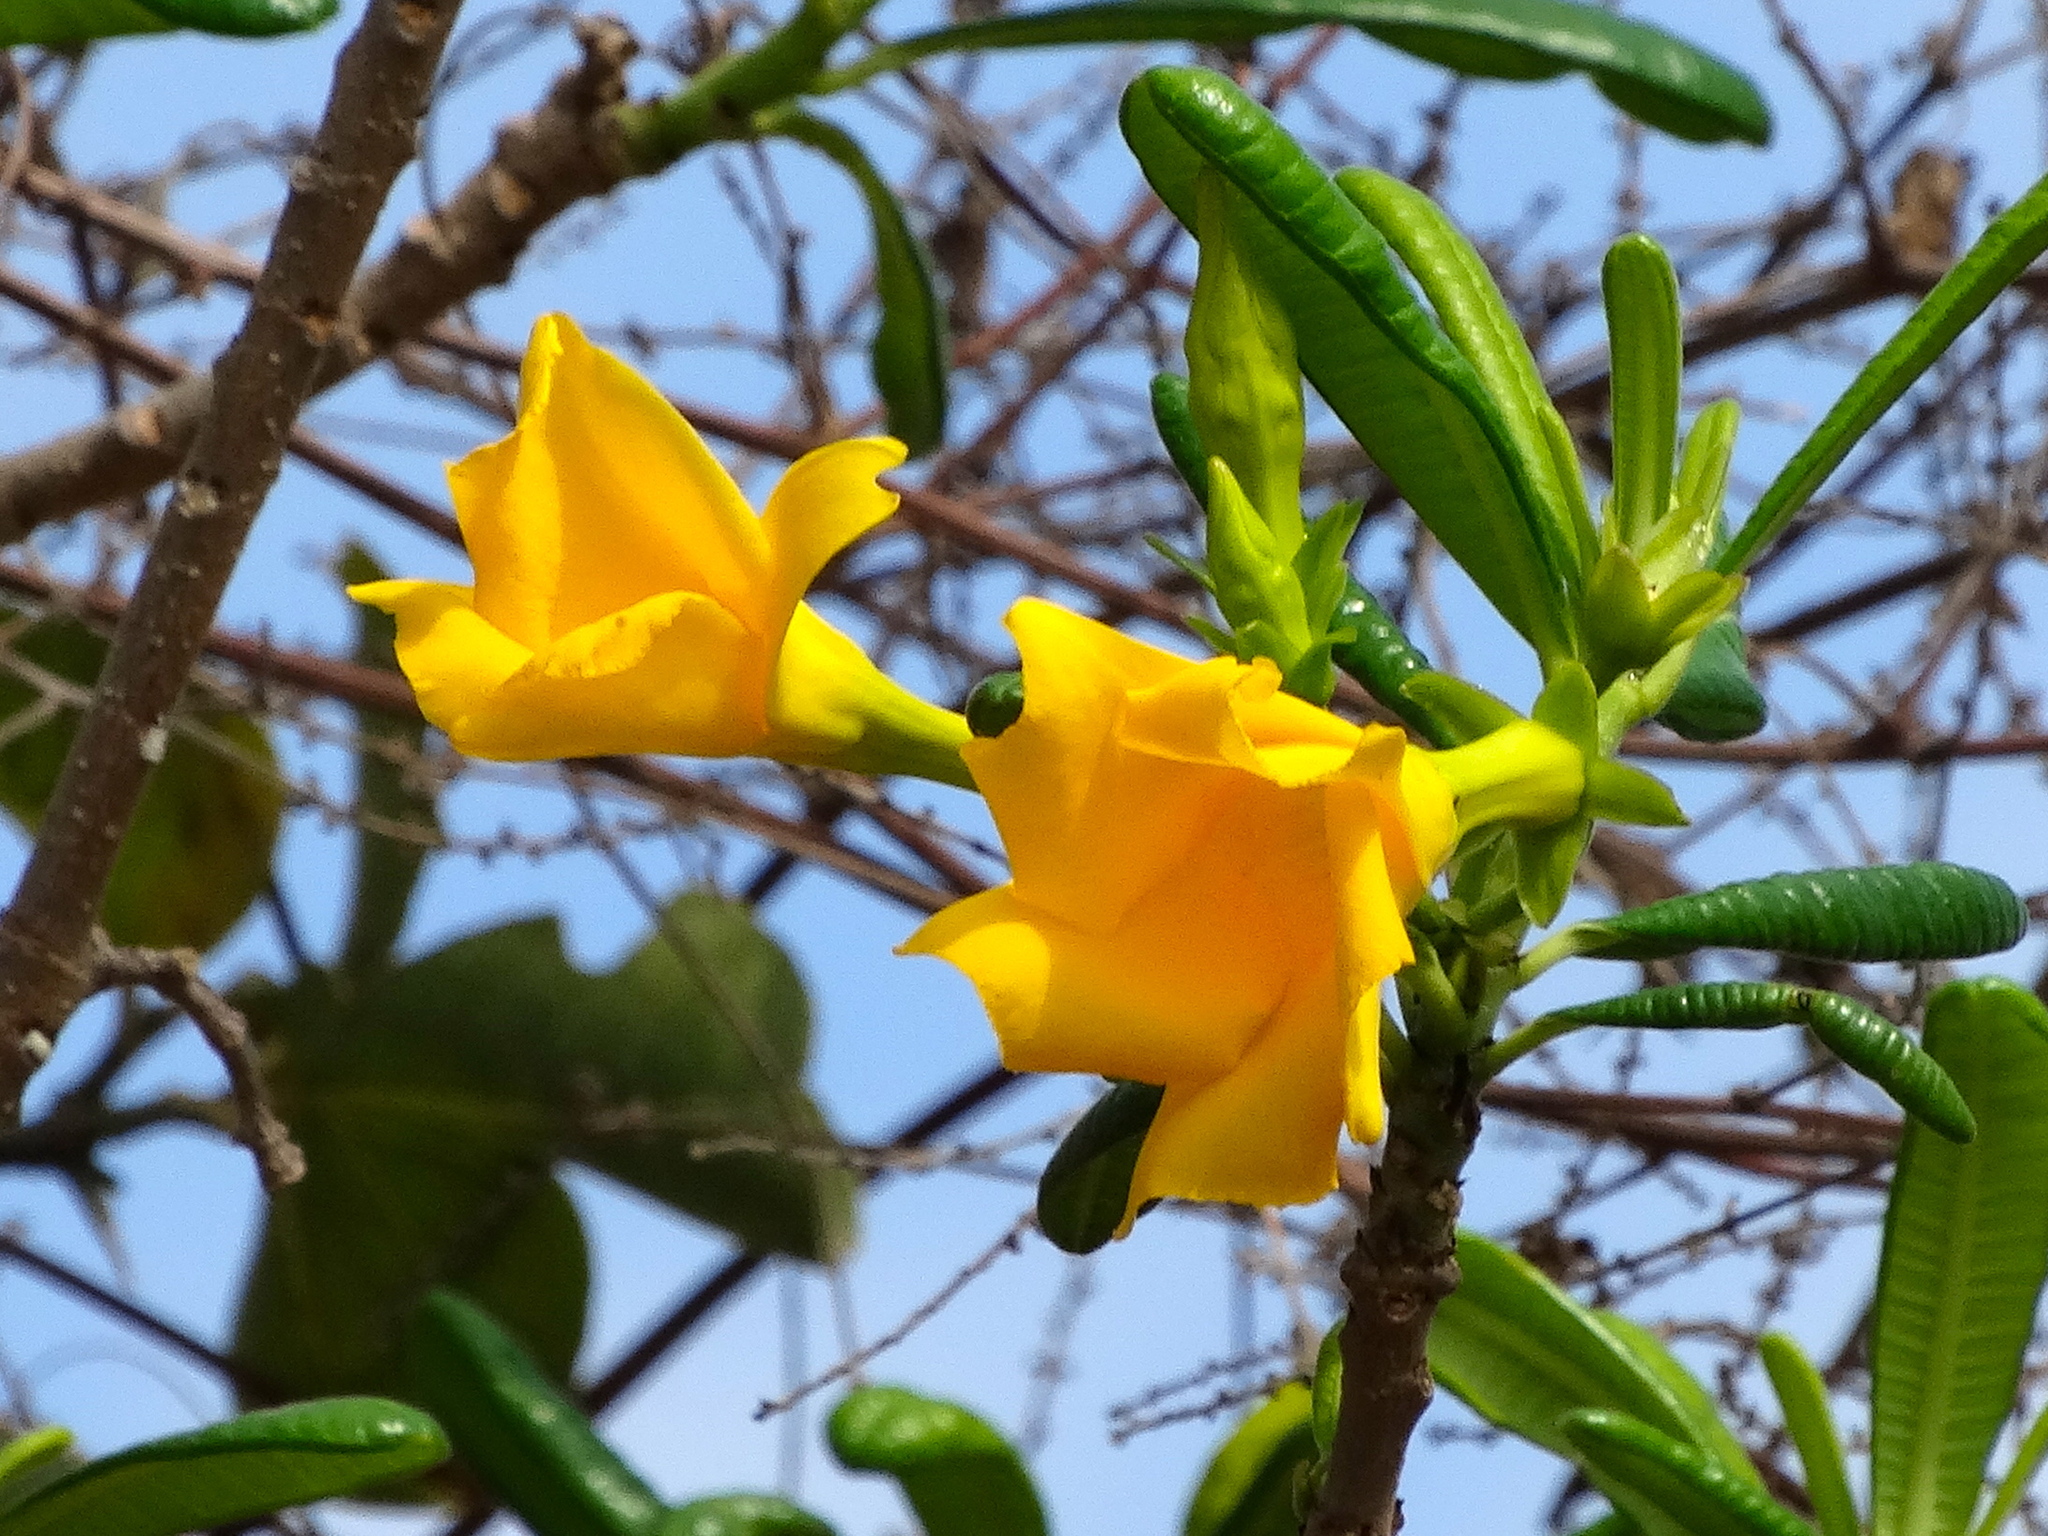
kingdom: Plantae
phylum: Tracheophyta
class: Magnoliopsida
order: Gentianales
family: Apocynaceae
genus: Cascabela
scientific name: Cascabela ovata
